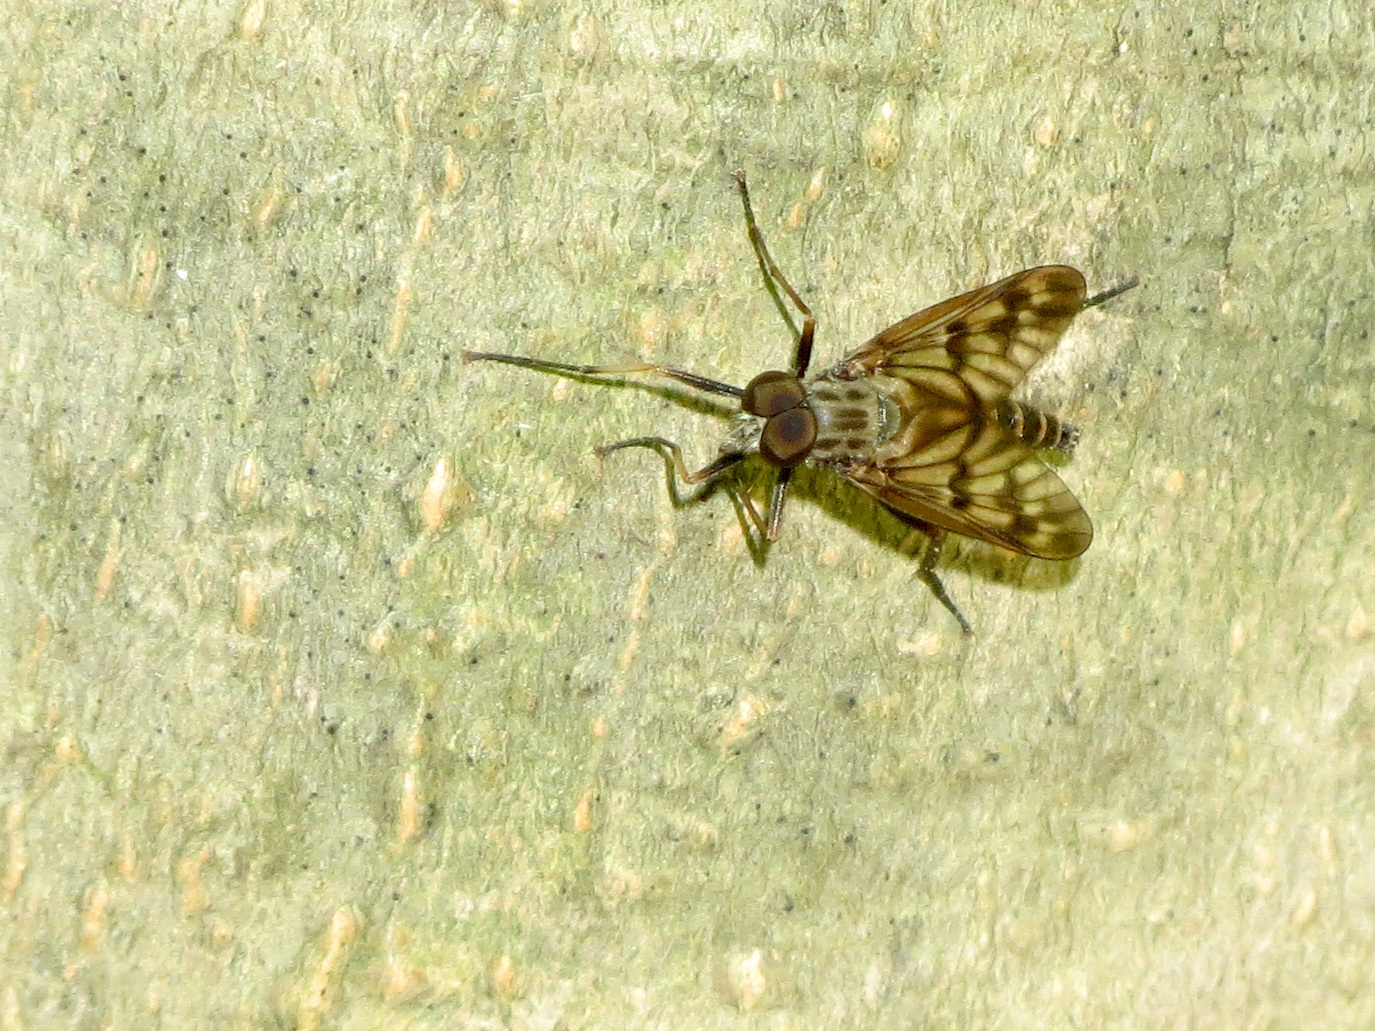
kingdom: Animalia
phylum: Arthropoda
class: Insecta
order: Diptera
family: Rhagionidae
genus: Rhagio
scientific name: Rhagio mystaceus
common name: Common snipe fly
